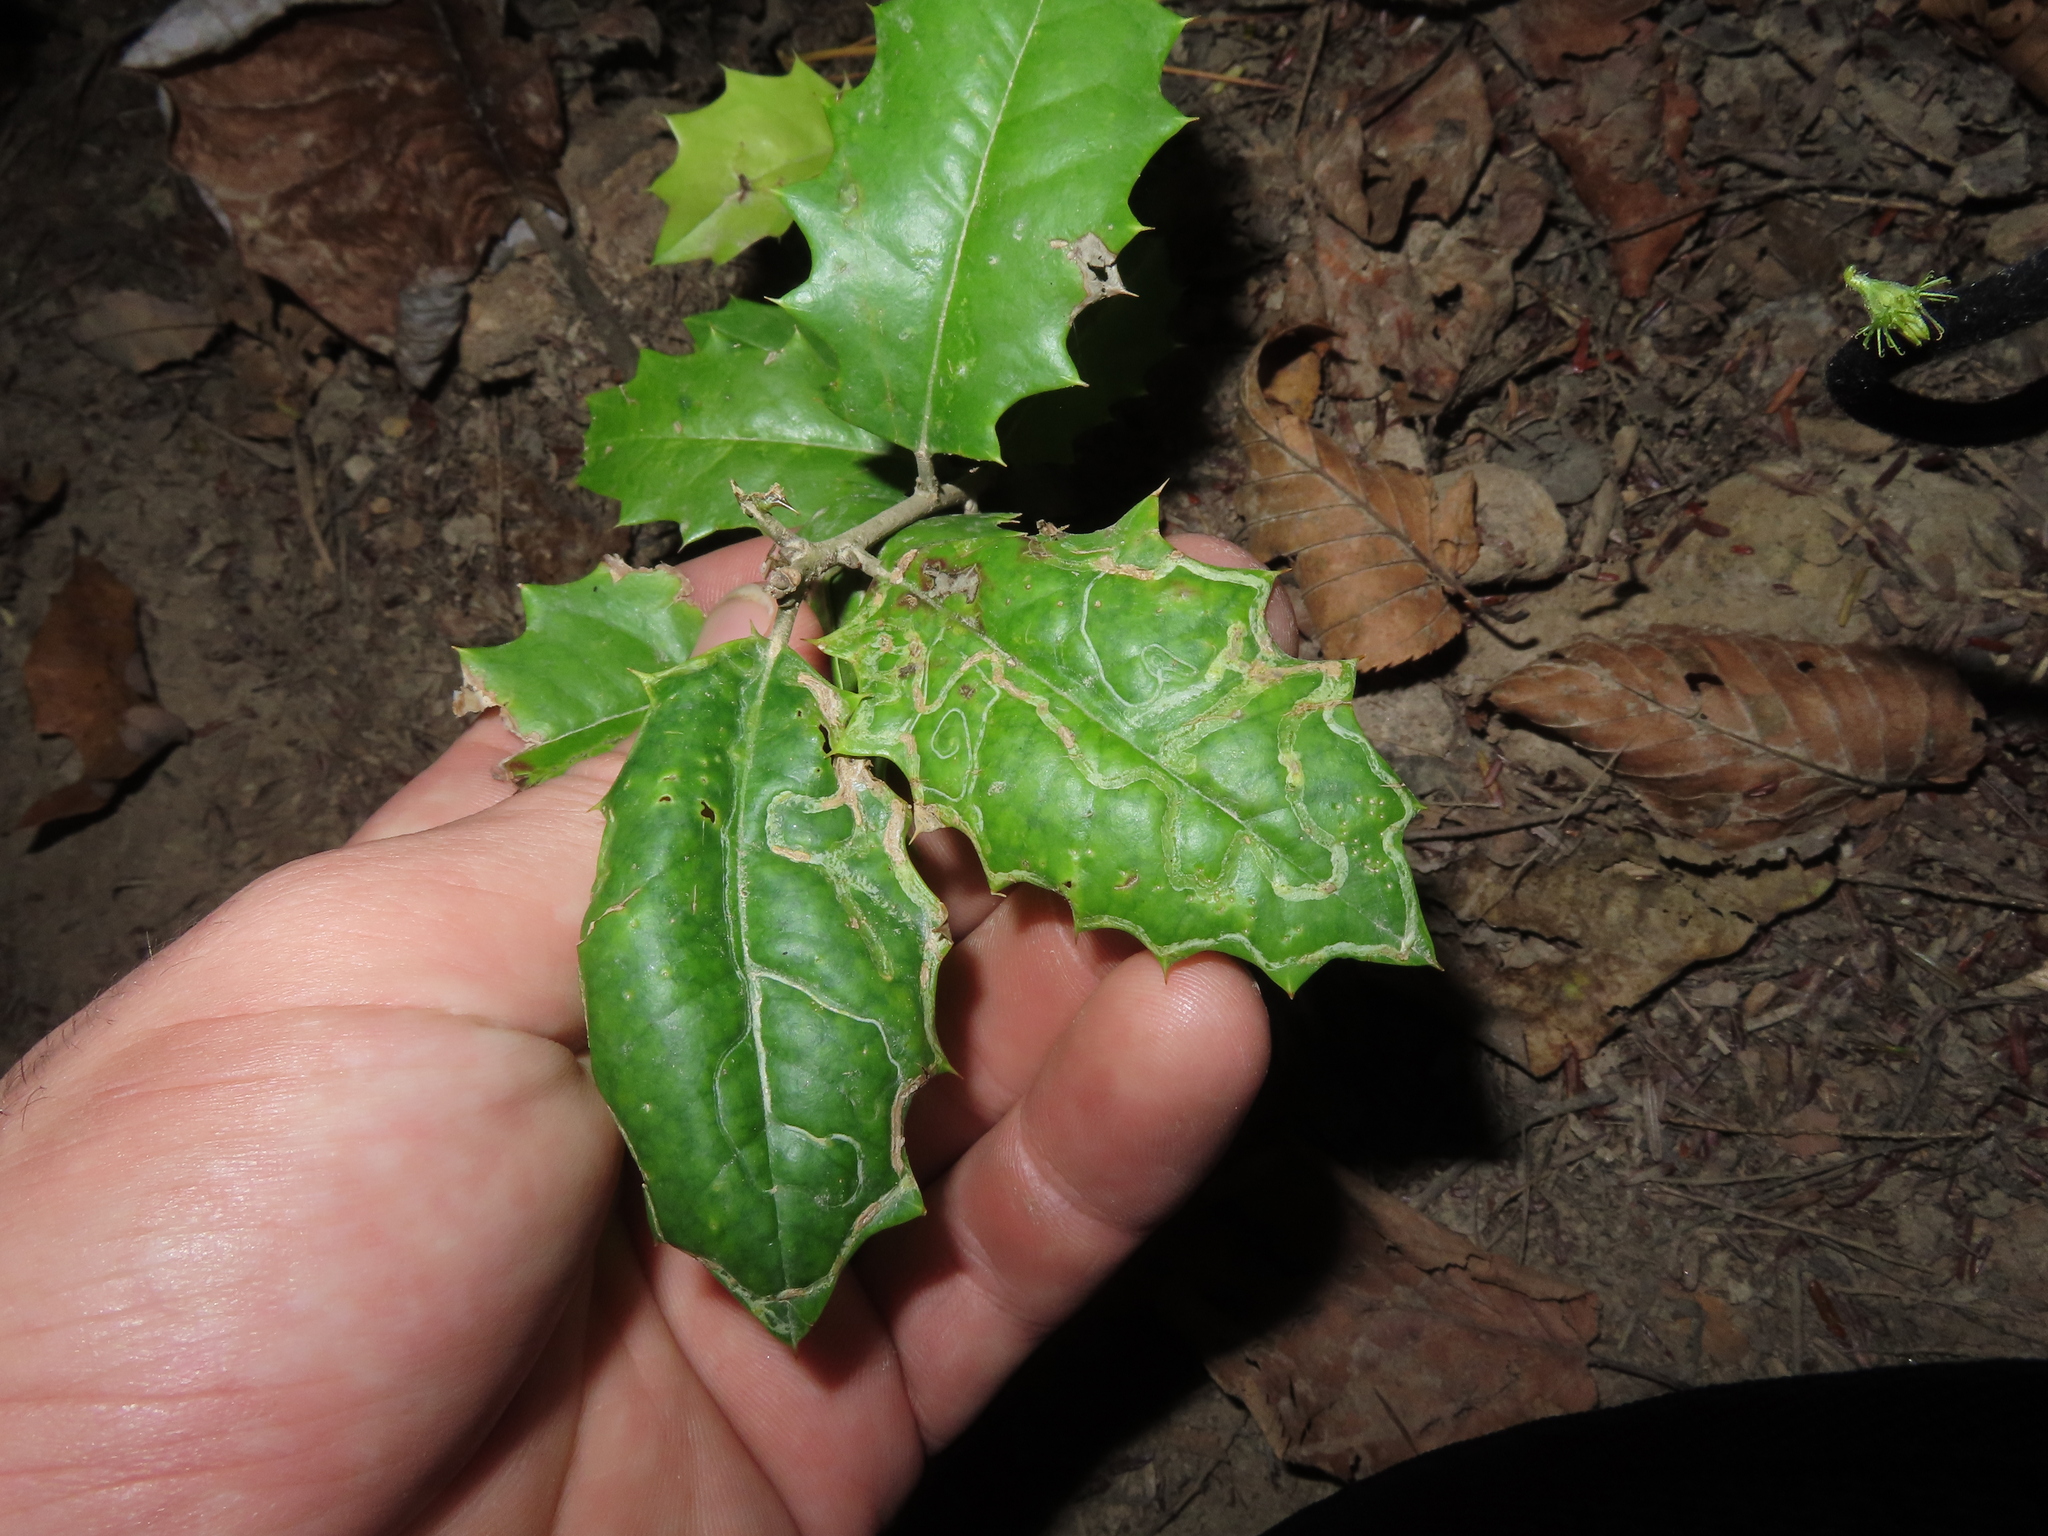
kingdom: Animalia
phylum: Arthropoda
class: Insecta
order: Diptera
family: Agromyzidae
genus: Phytomyza
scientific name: Phytomyza opacae
